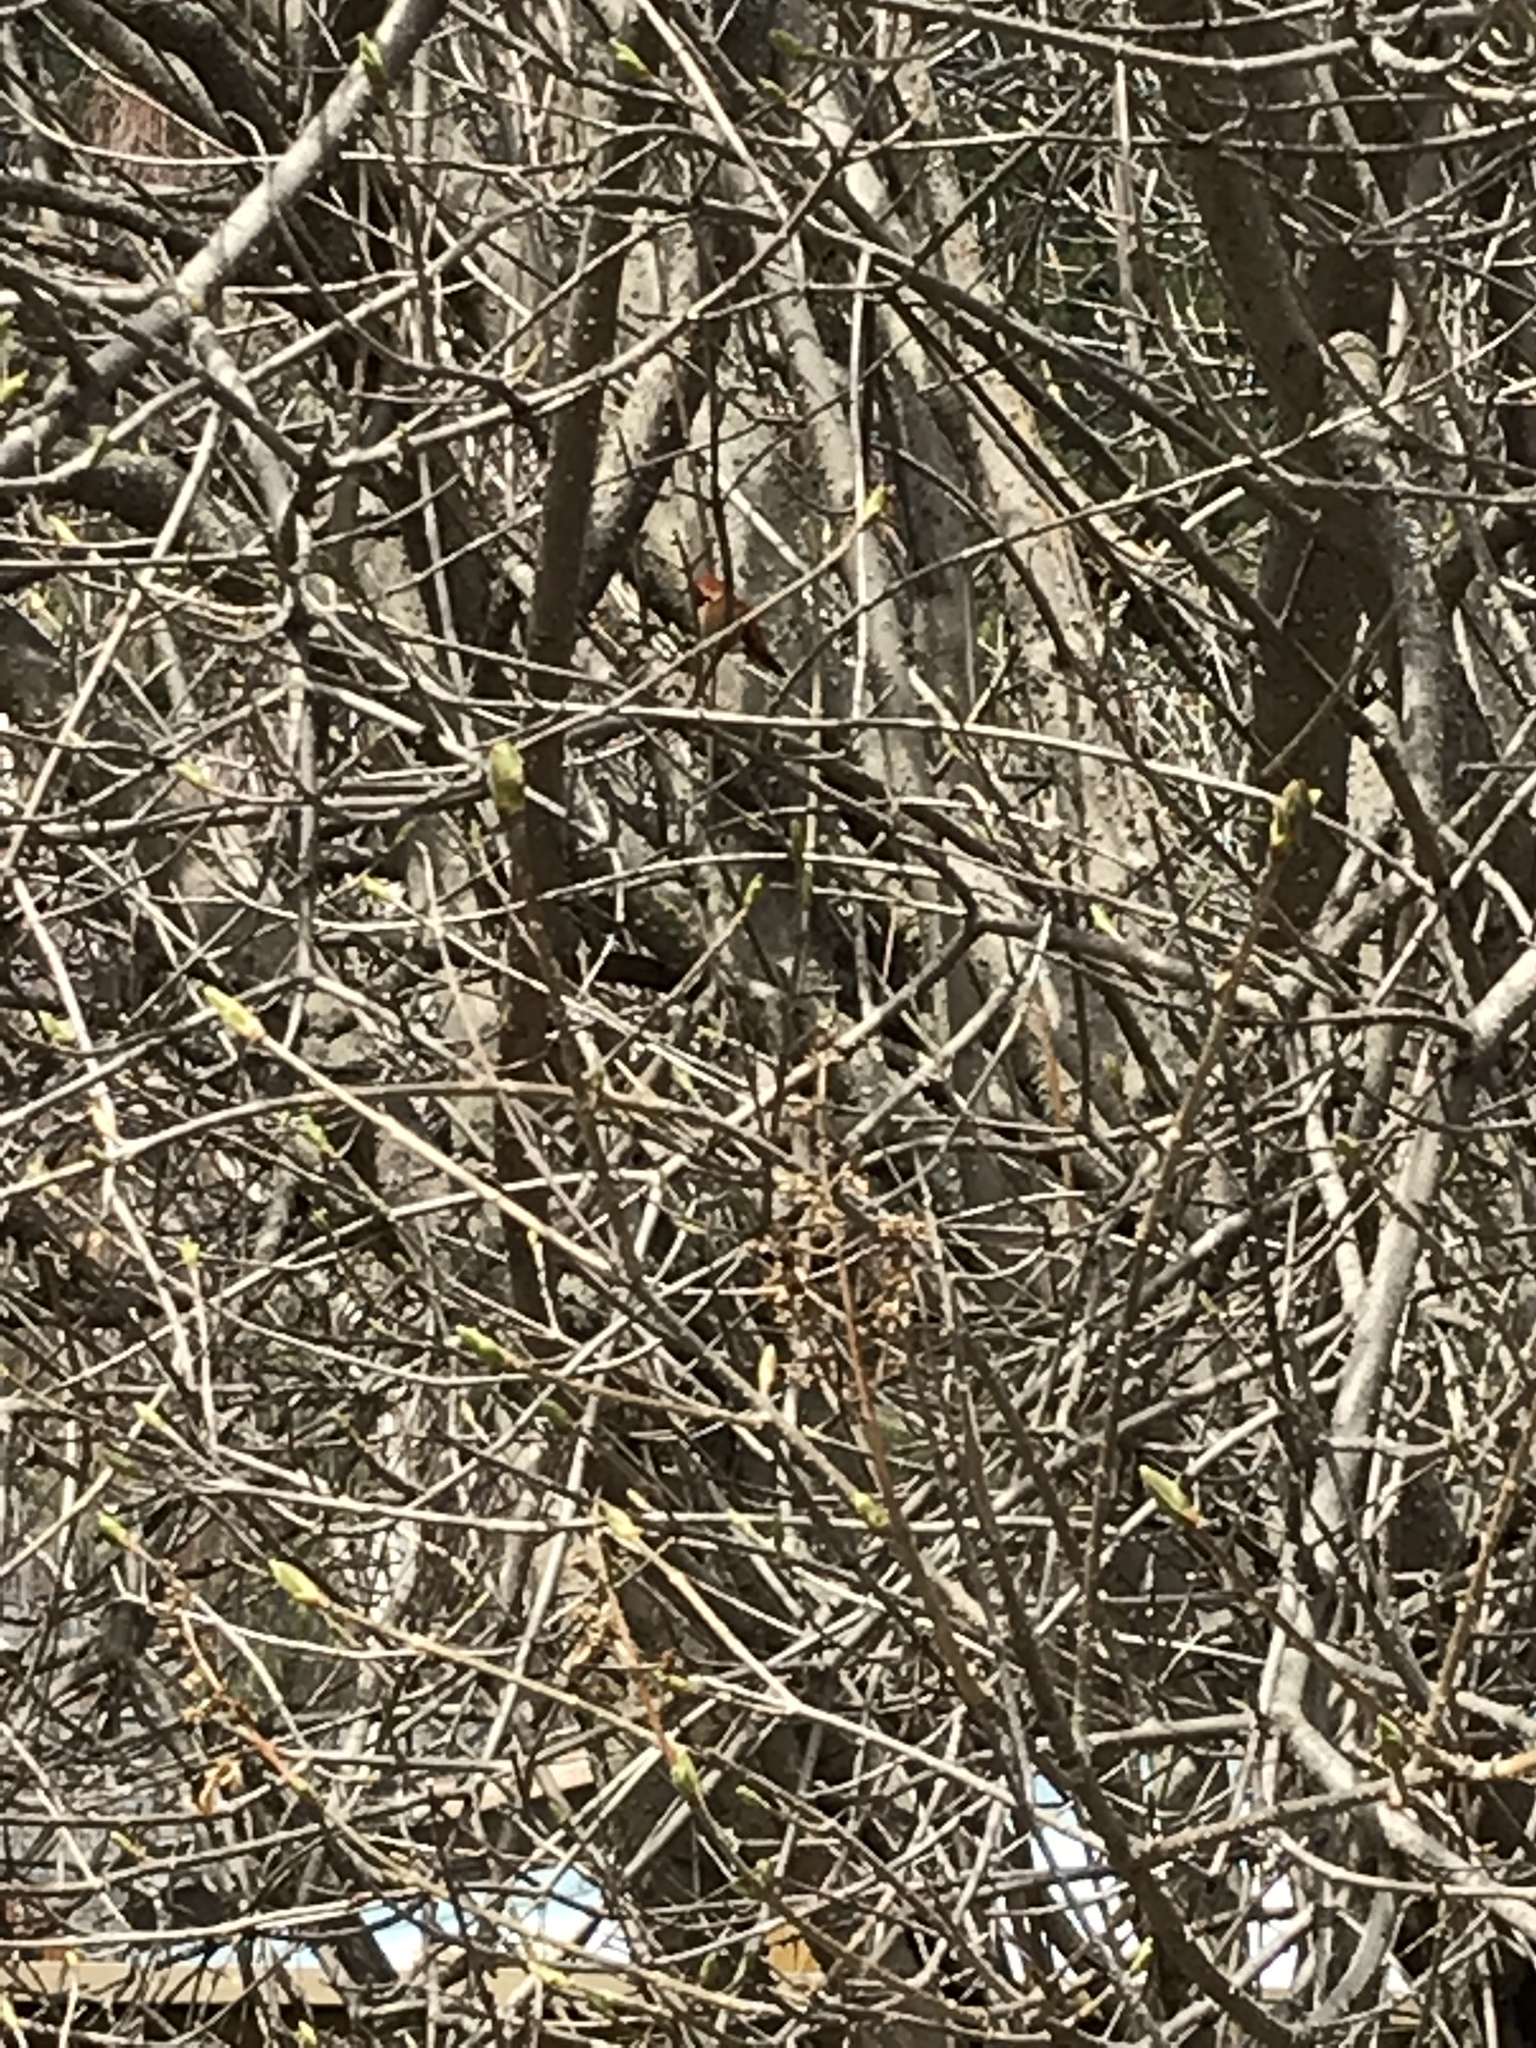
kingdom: Animalia
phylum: Chordata
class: Aves
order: Apodiformes
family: Trochilidae
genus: Selasphorus
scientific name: Selasphorus rufus
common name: Rufous hummingbird
